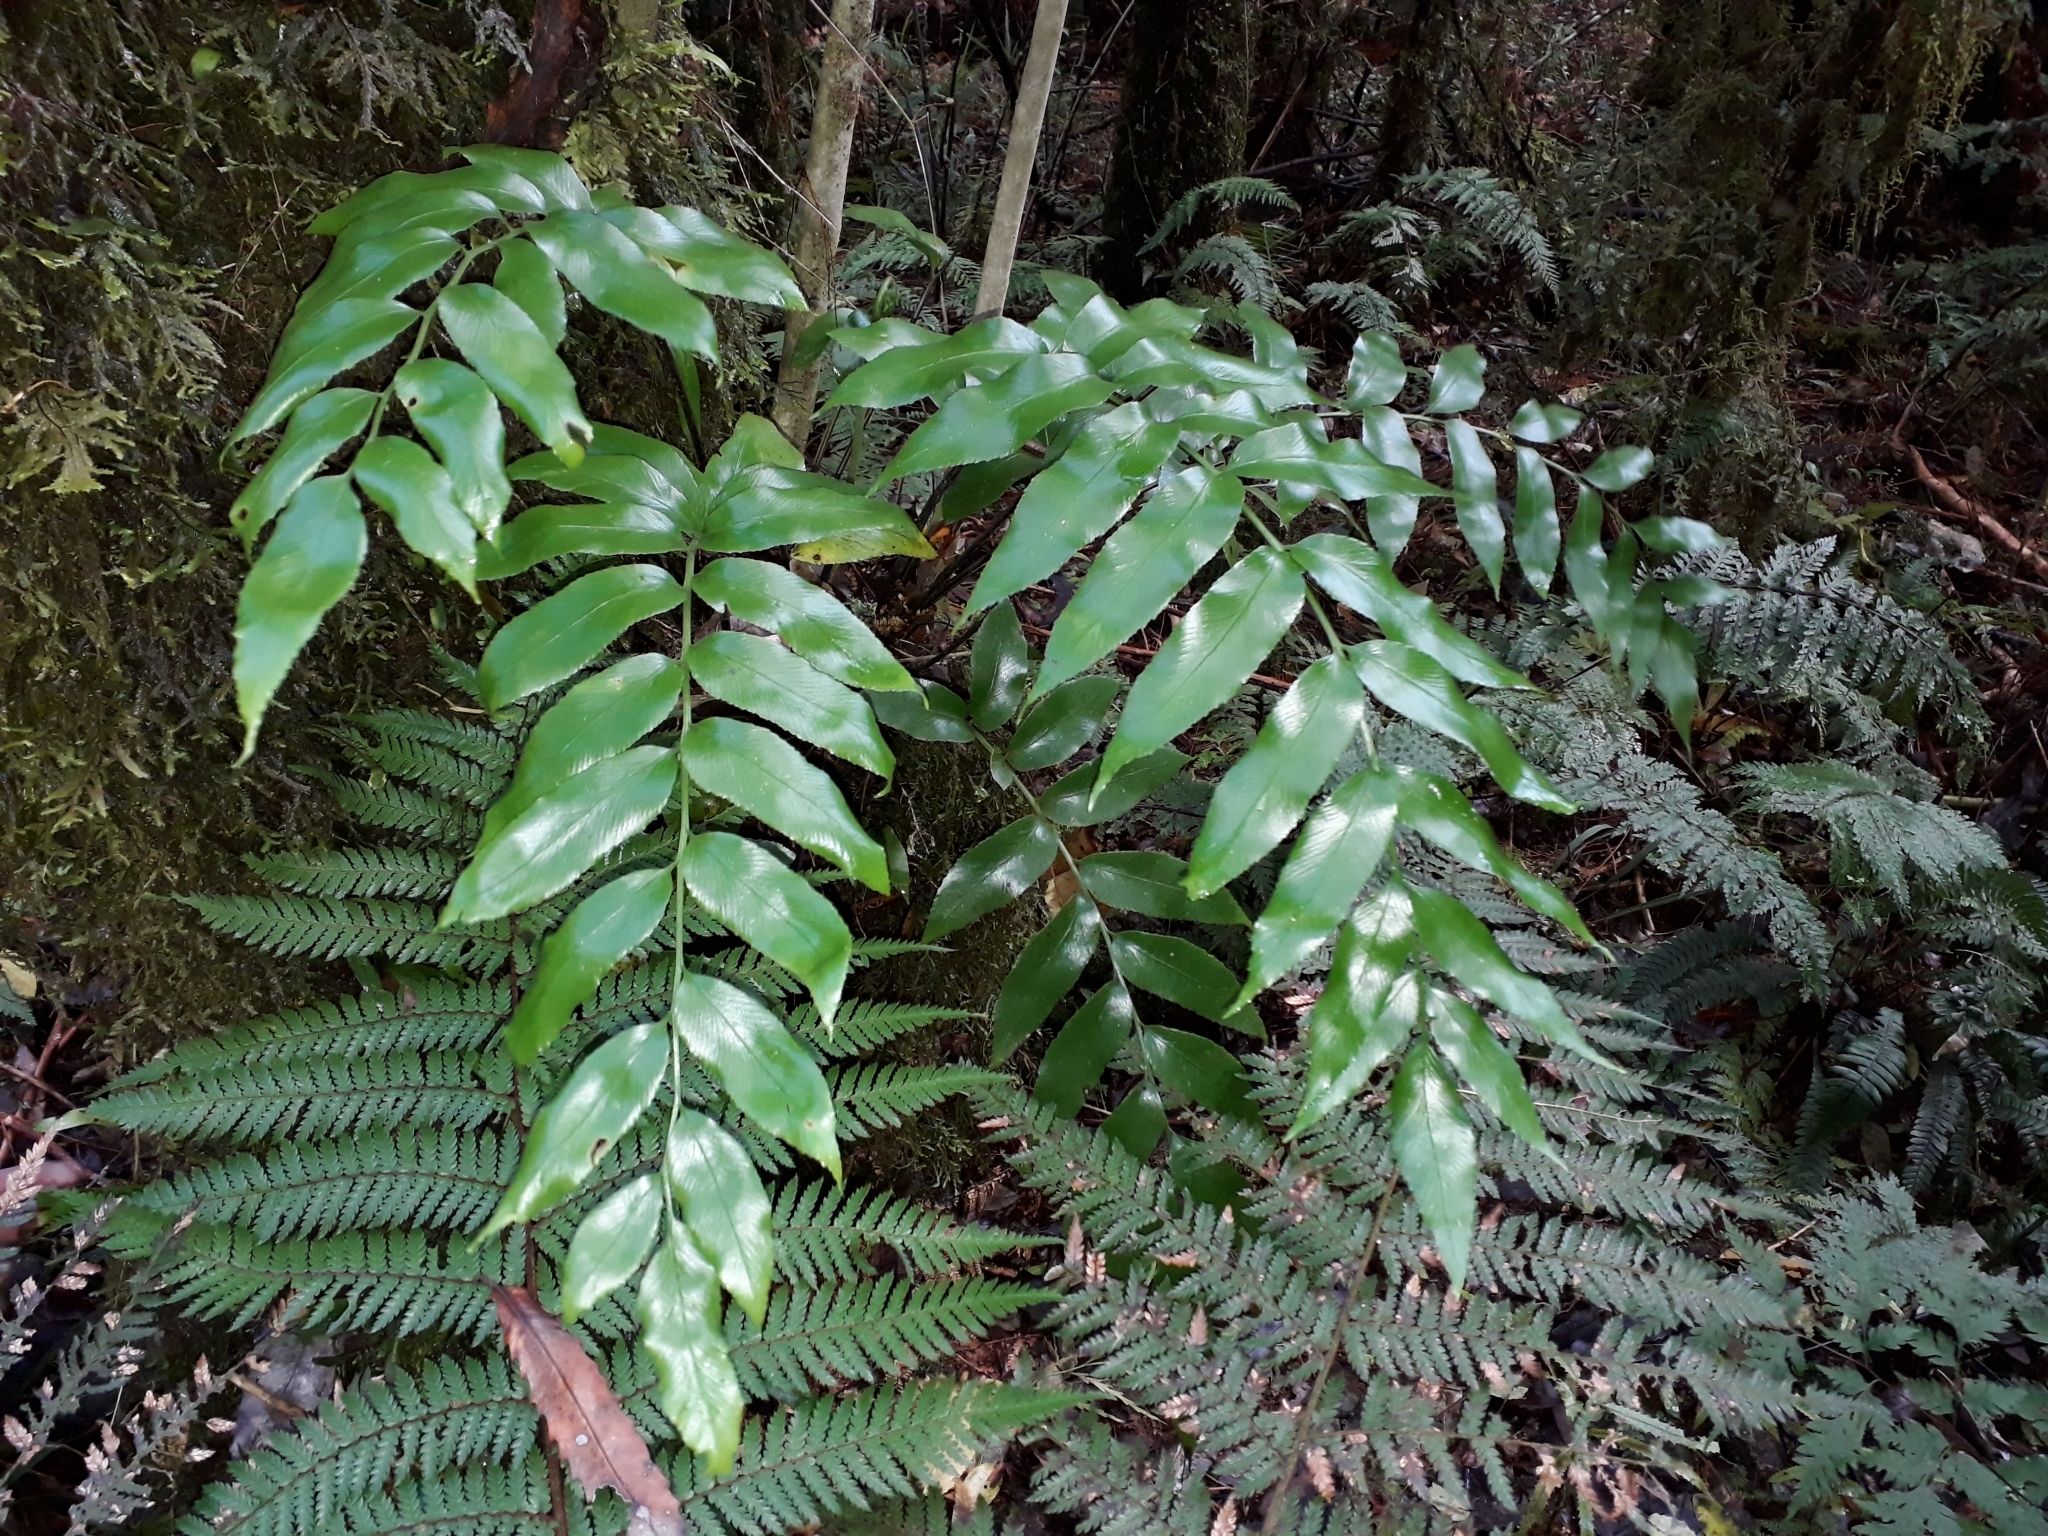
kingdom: Plantae
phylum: Tracheophyta
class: Polypodiopsida
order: Polypodiales
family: Aspleniaceae
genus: Asplenium
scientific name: Asplenium oblongifolium
